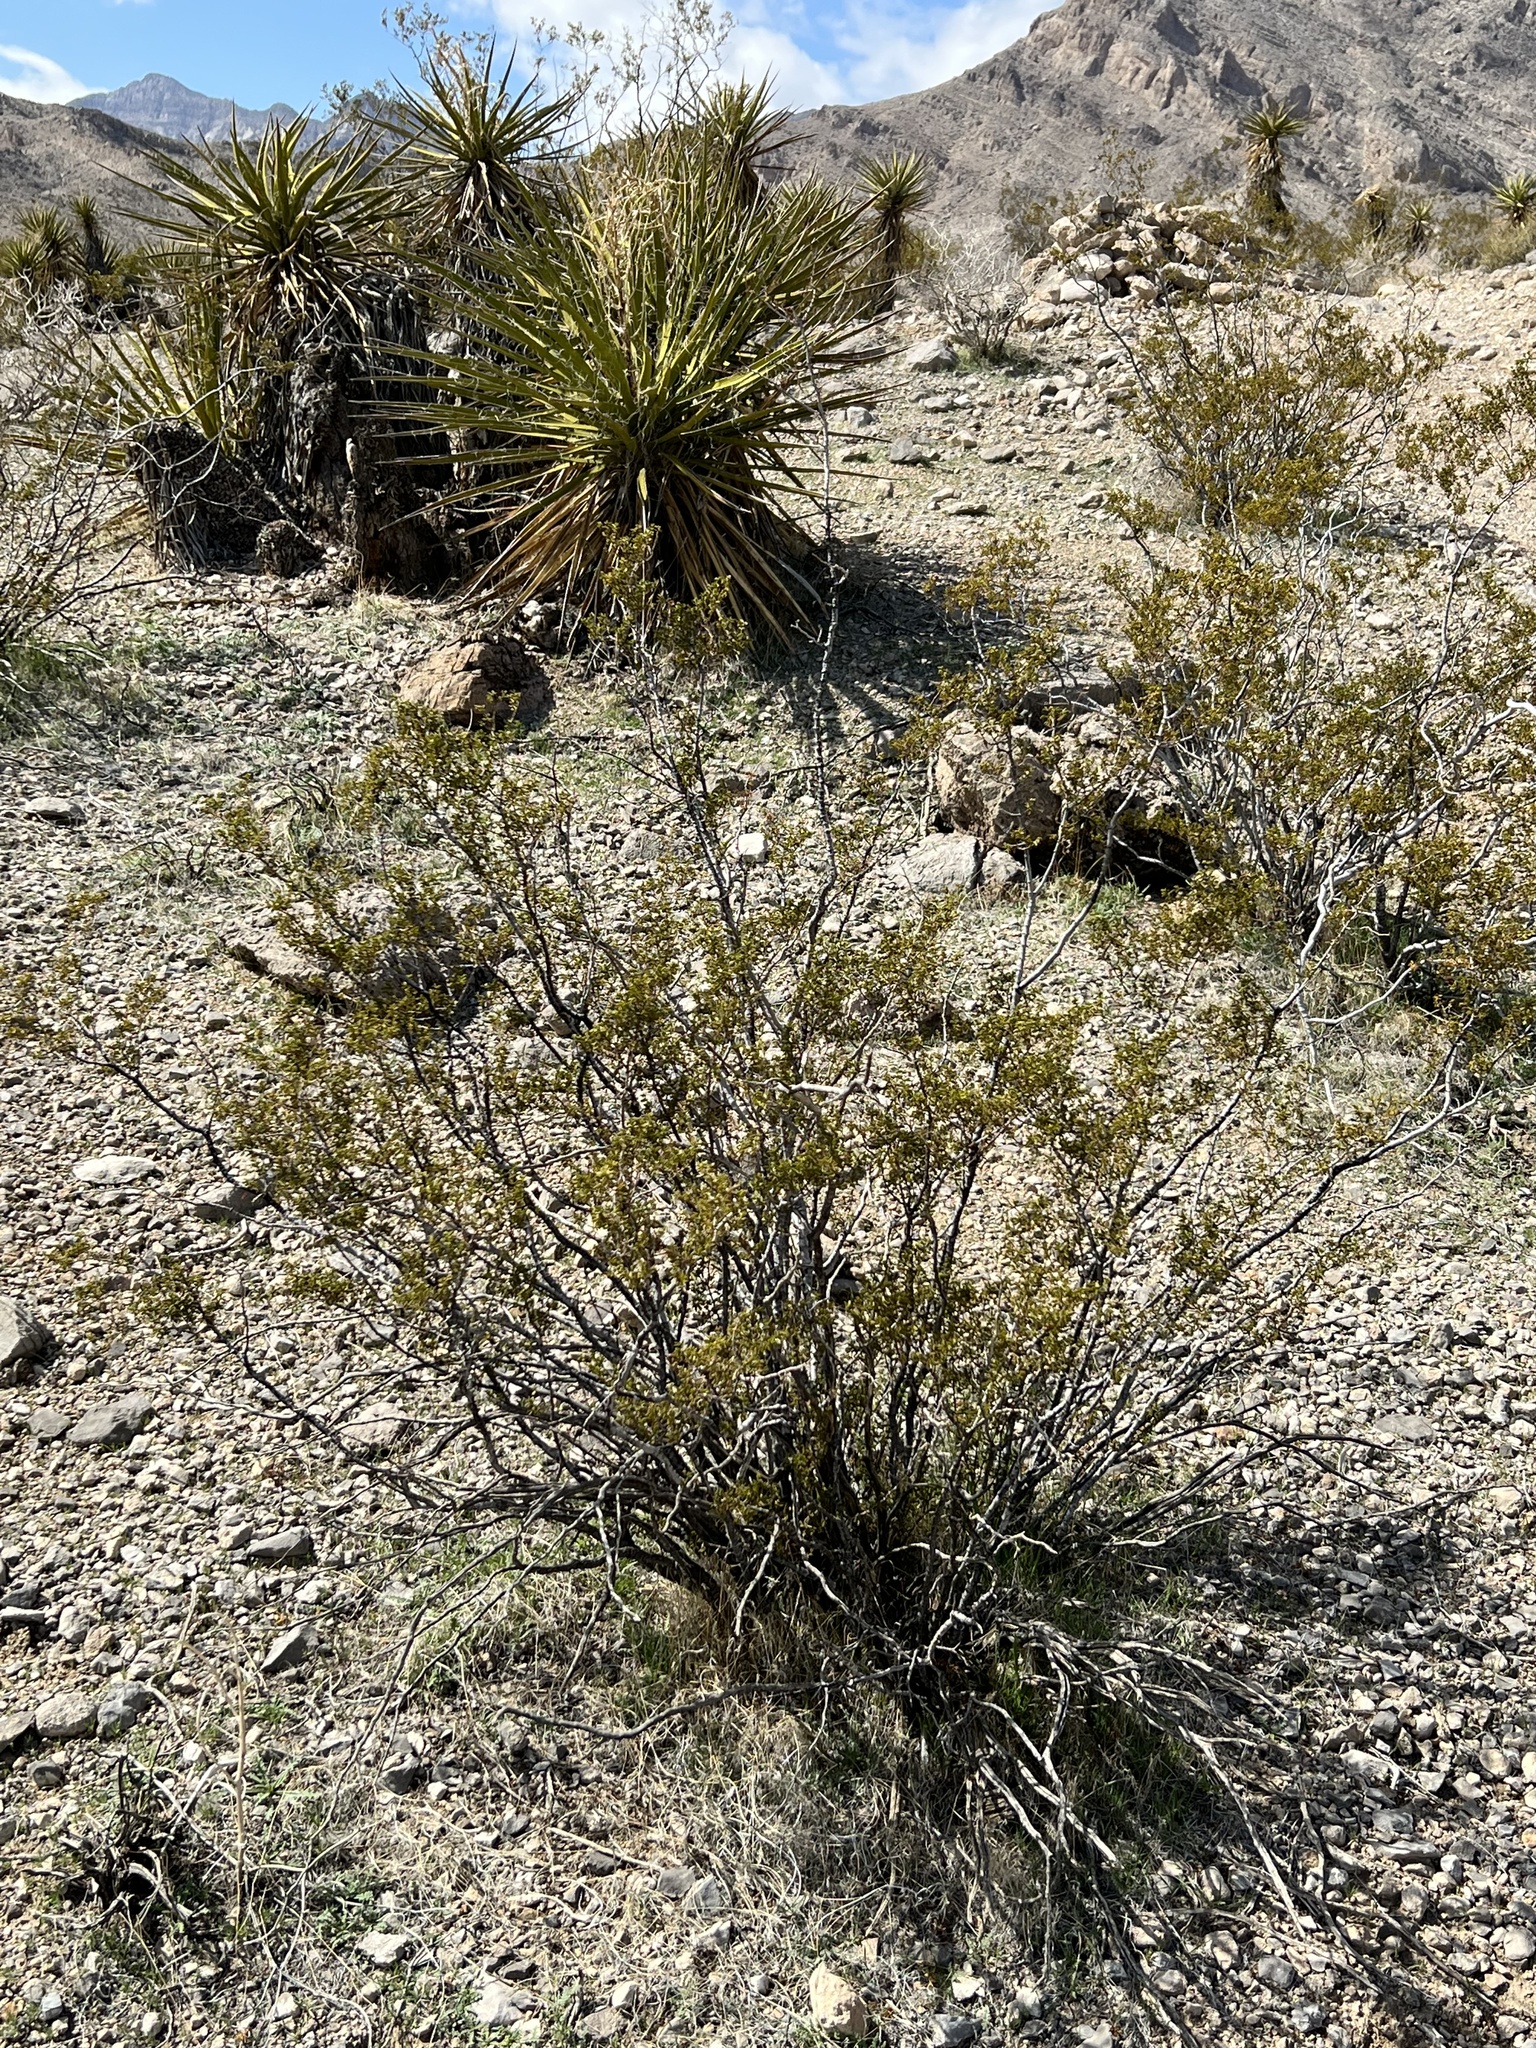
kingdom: Plantae
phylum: Tracheophyta
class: Magnoliopsida
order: Zygophyllales
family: Zygophyllaceae
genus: Larrea
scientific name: Larrea tridentata
